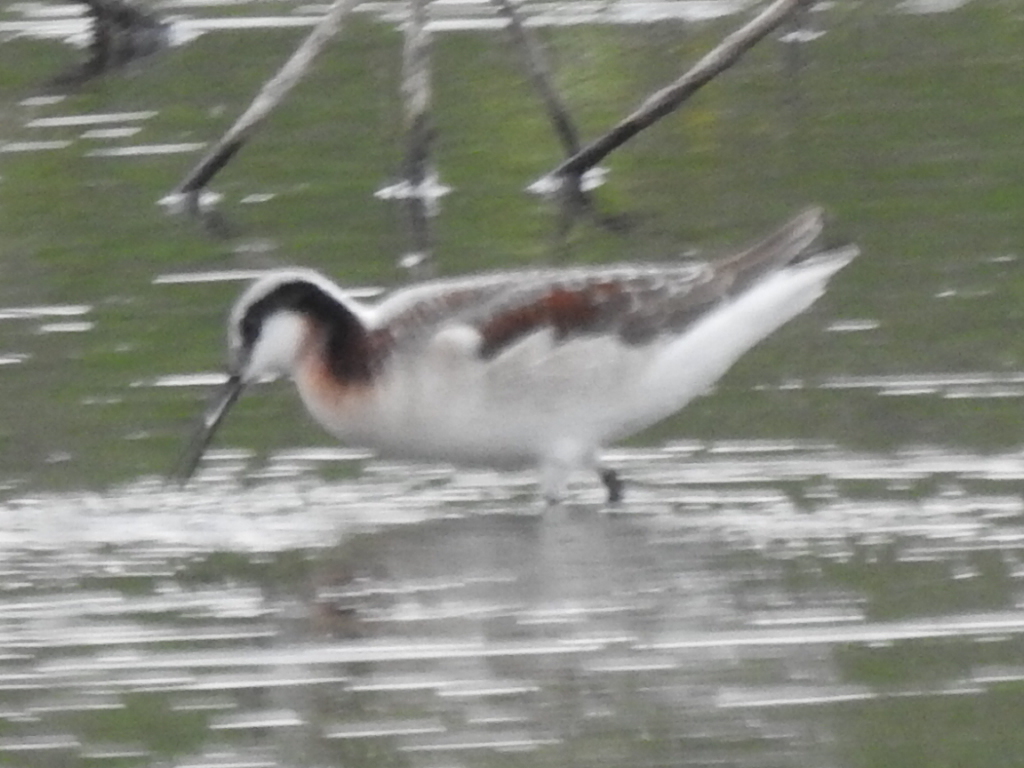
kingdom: Animalia
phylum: Chordata
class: Aves
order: Charadriiformes
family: Scolopacidae
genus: Phalaropus
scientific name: Phalaropus tricolor
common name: Wilson's phalarope
